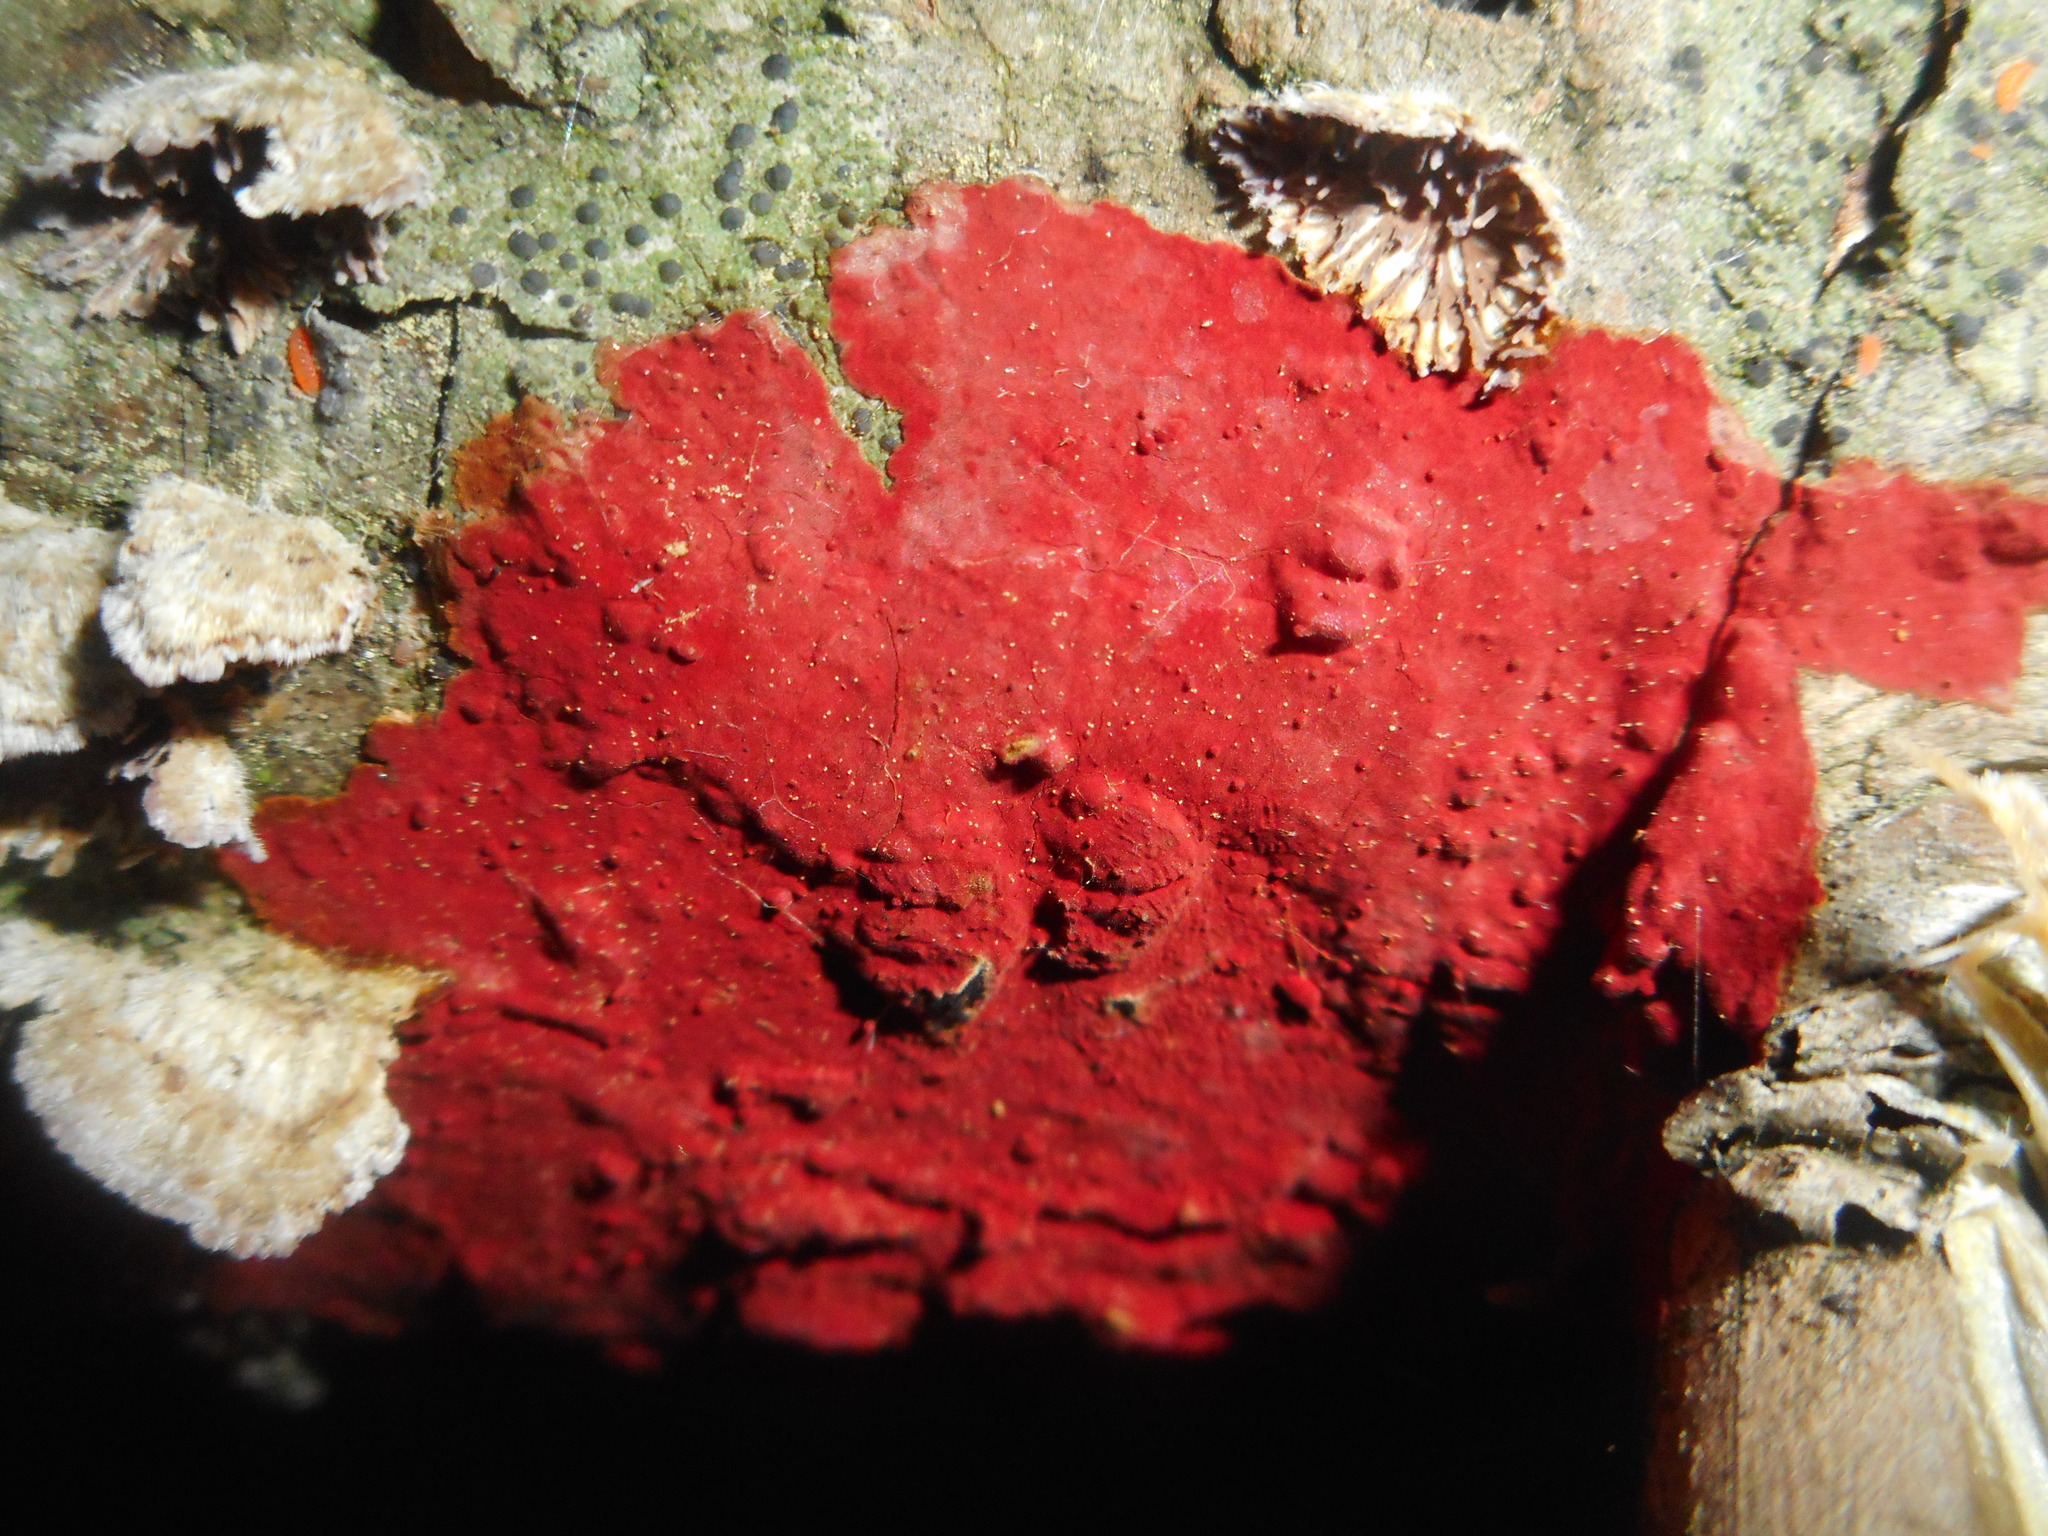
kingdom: Fungi
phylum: Basidiomycota
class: Agaricomycetes
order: Hymenochaetales
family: Hymenochaetaceae
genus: Hymenochaete
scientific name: Hymenochaete cruenta
